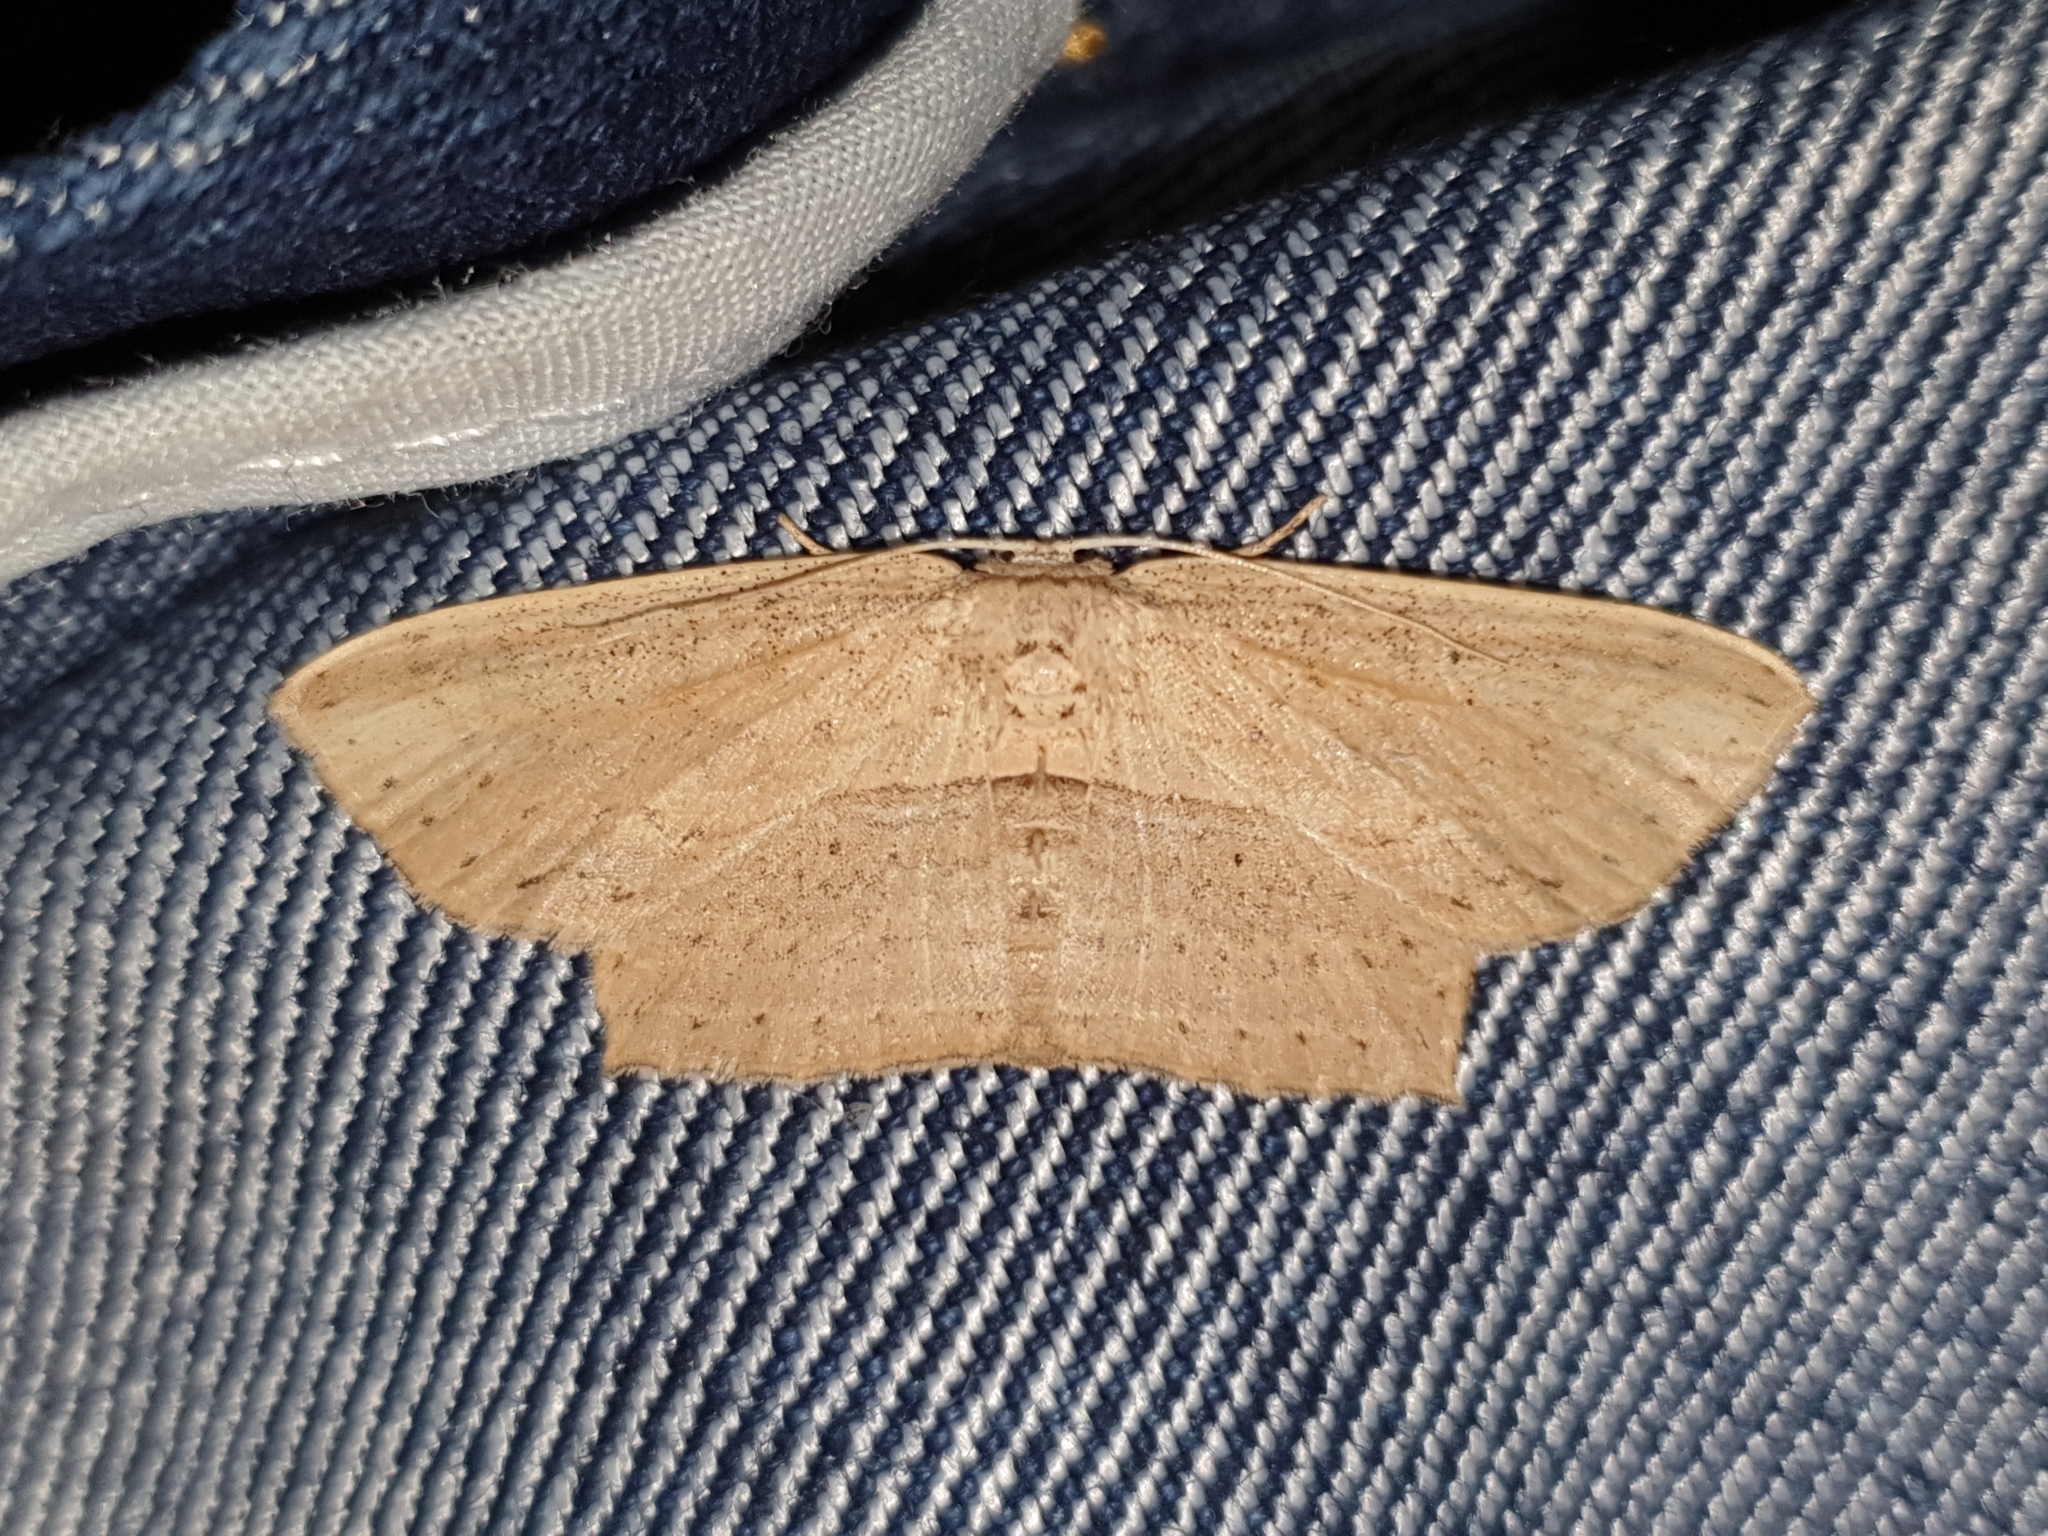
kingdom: Animalia
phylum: Arthropoda
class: Insecta
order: Lepidoptera
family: Drepanidae
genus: Phalacra
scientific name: Phalacra vidhisara
